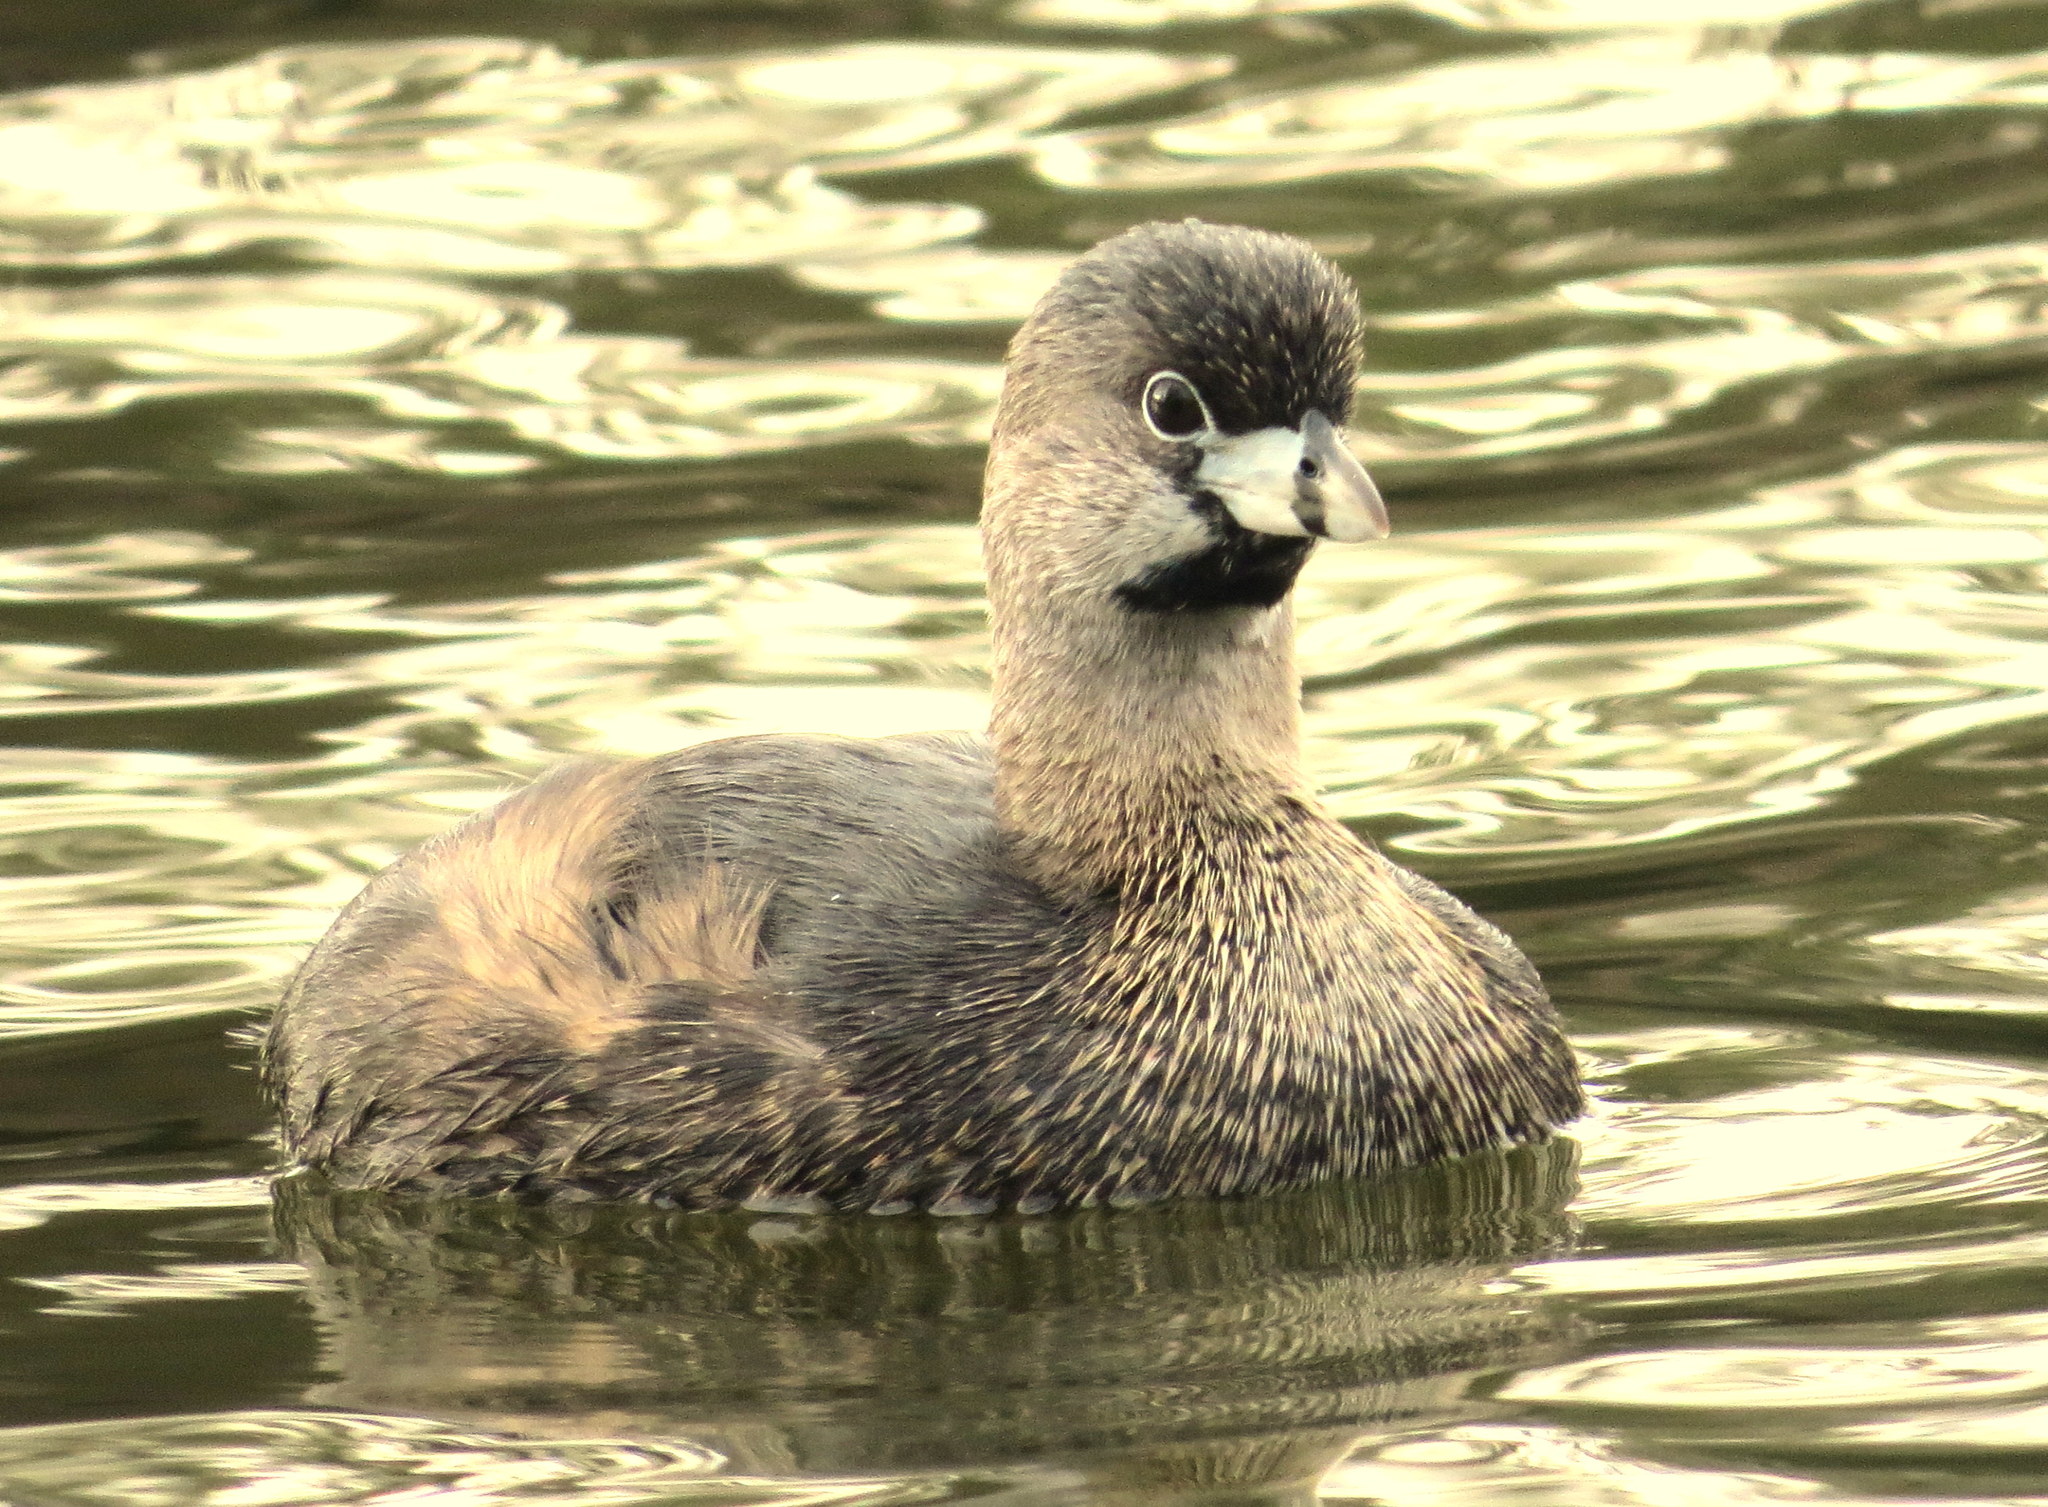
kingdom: Animalia
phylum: Chordata
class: Aves
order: Podicipediformes
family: Podicipedidae
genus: Podilymbus
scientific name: Podilymbus podiceps
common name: Pied-billed grebe
